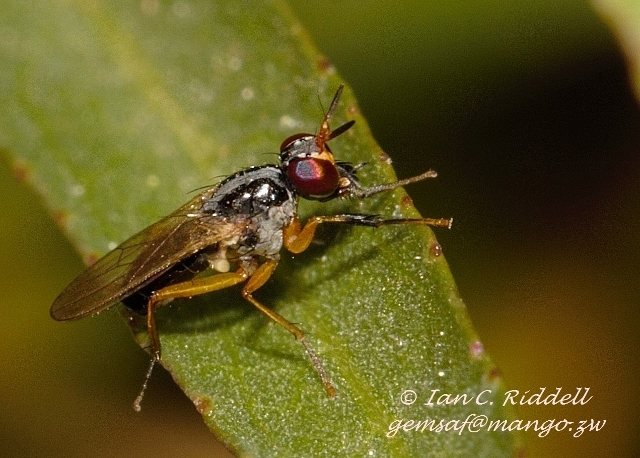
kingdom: Animalia
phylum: Arthropoda
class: Insecta
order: Diptera
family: Muscidae
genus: Anaphalantus
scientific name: Anaphalantus longicornis
